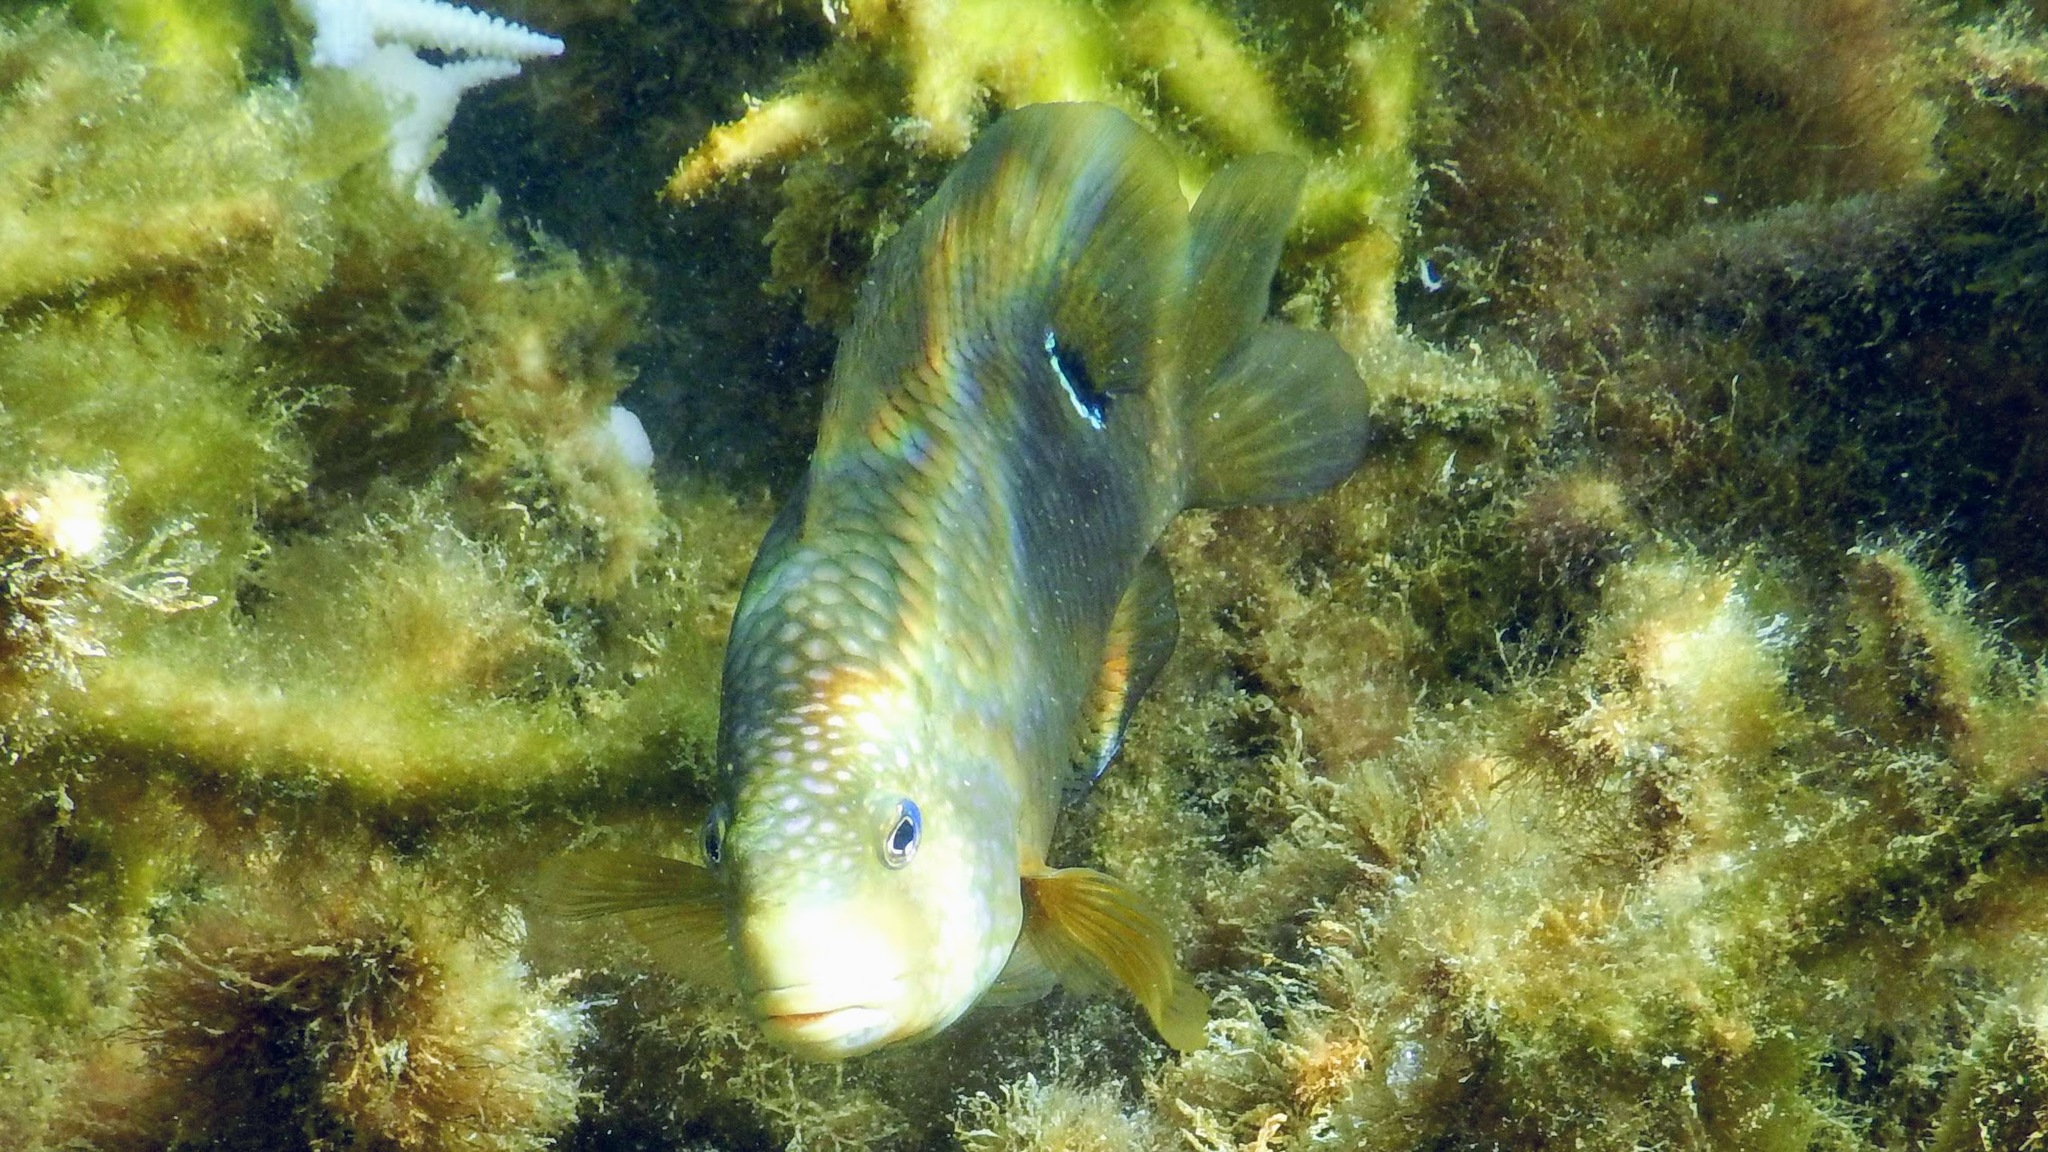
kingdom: Animalia
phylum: Chordata
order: Perciformes
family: Pomacentridae
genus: Stegastes
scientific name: Stegastes punctatus
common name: Blunt snout gregory
